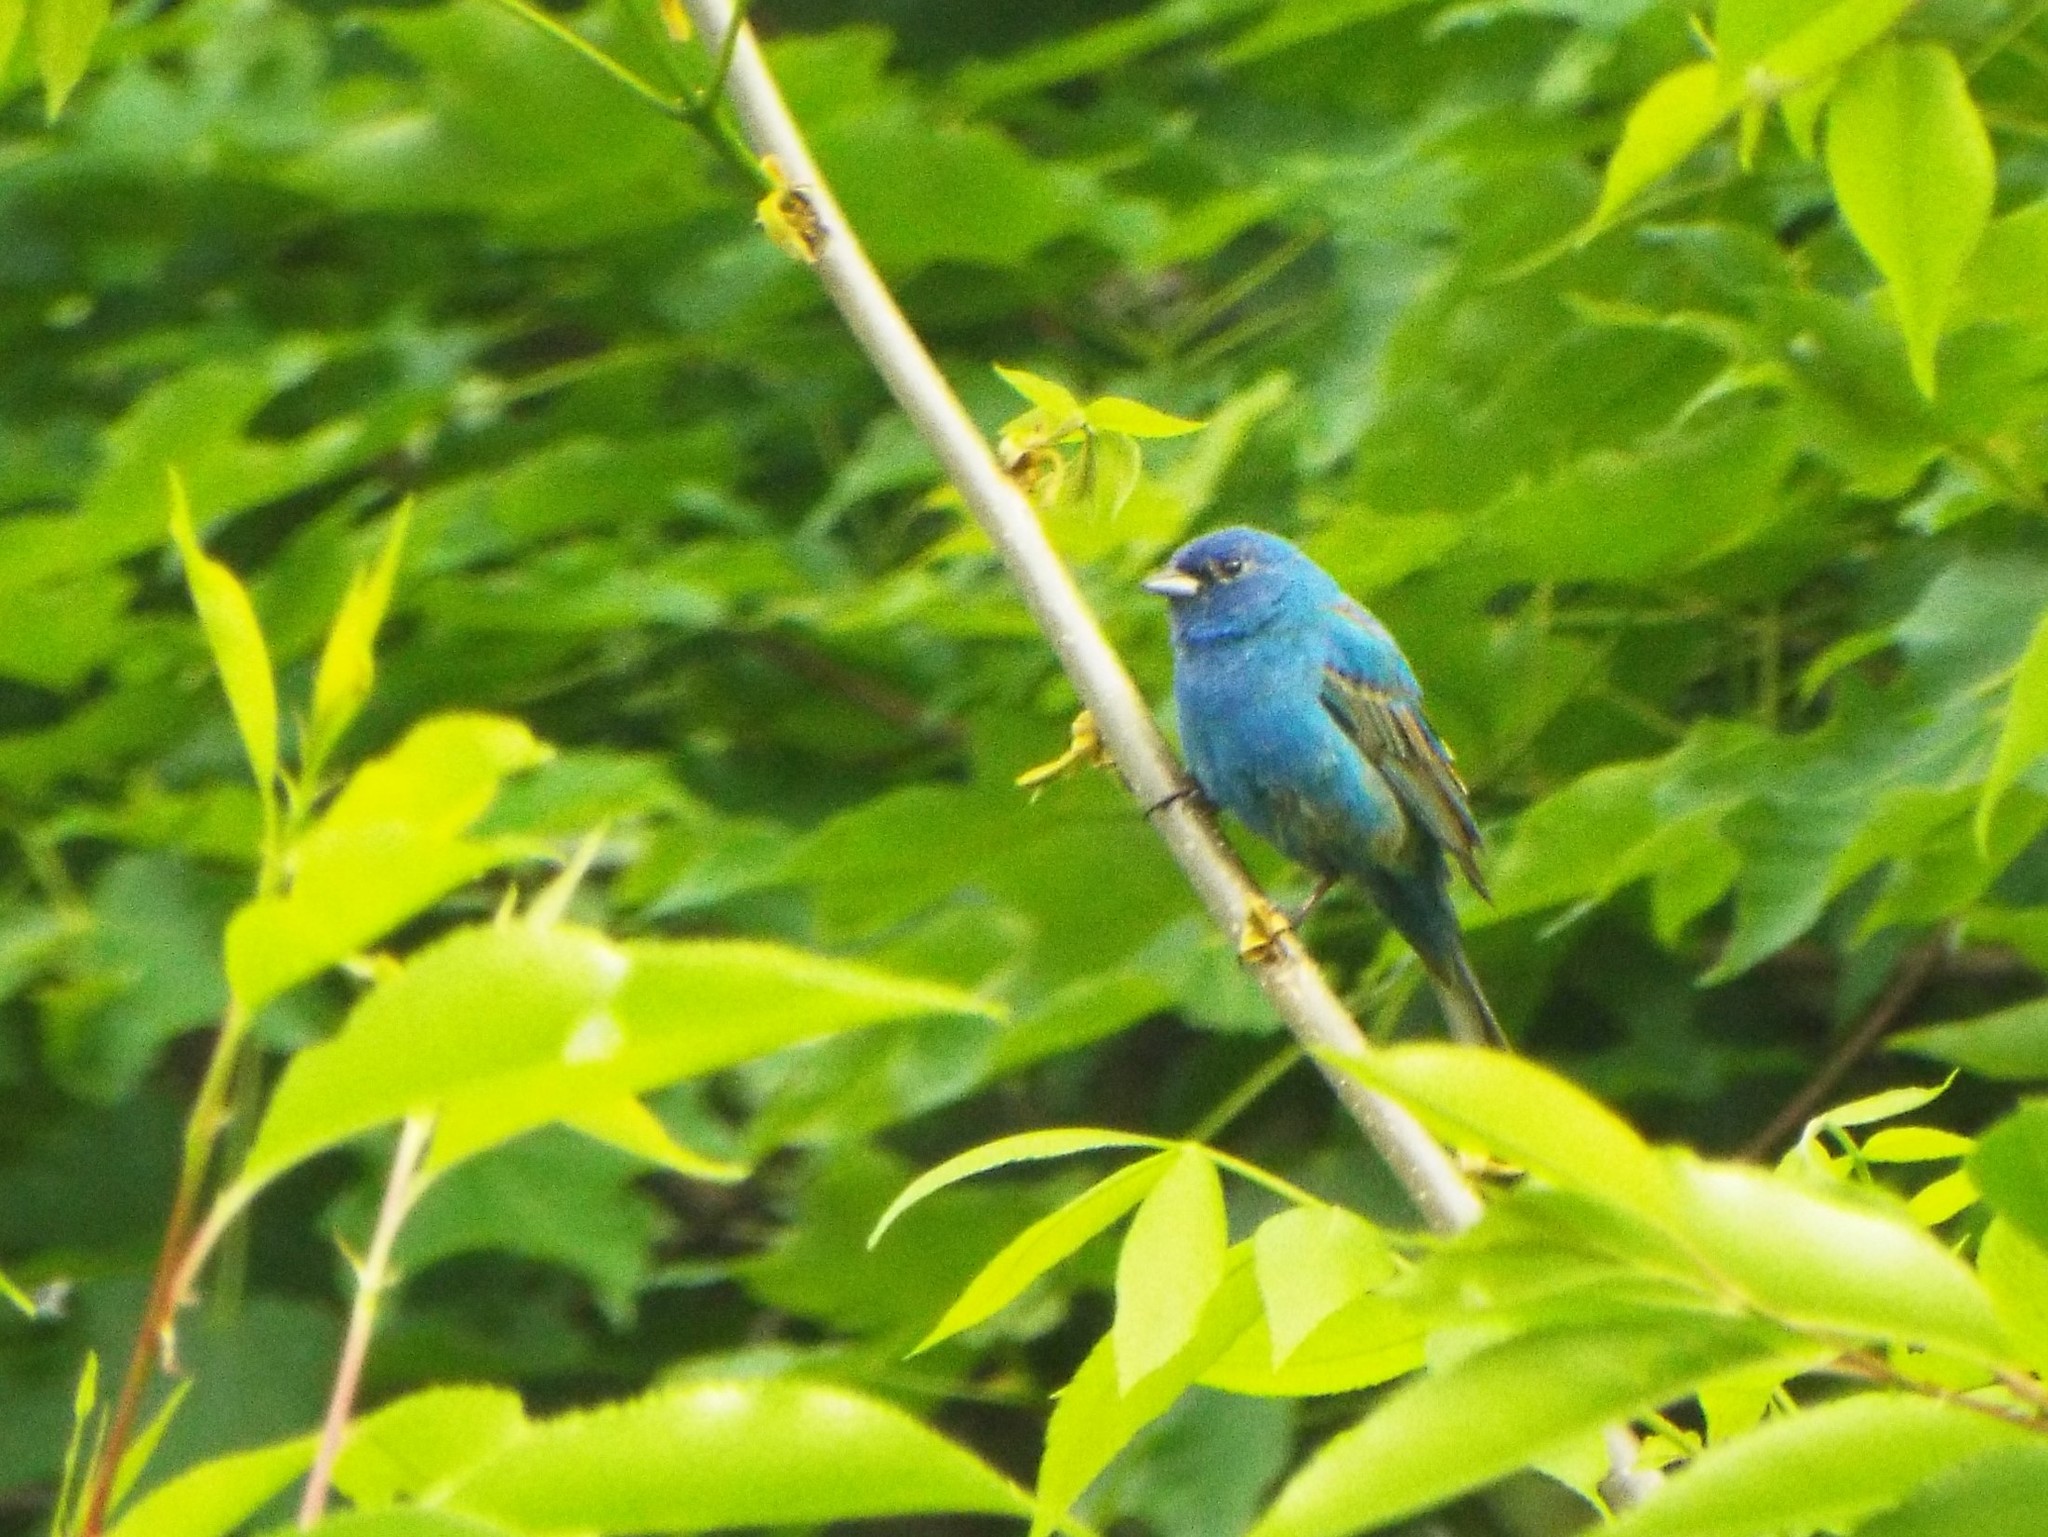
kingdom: Animalia
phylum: Chordata
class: Aves
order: Passeriformes
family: Cardinalidae
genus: Passerina
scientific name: Passerina cyanea
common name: Indigo bunting
